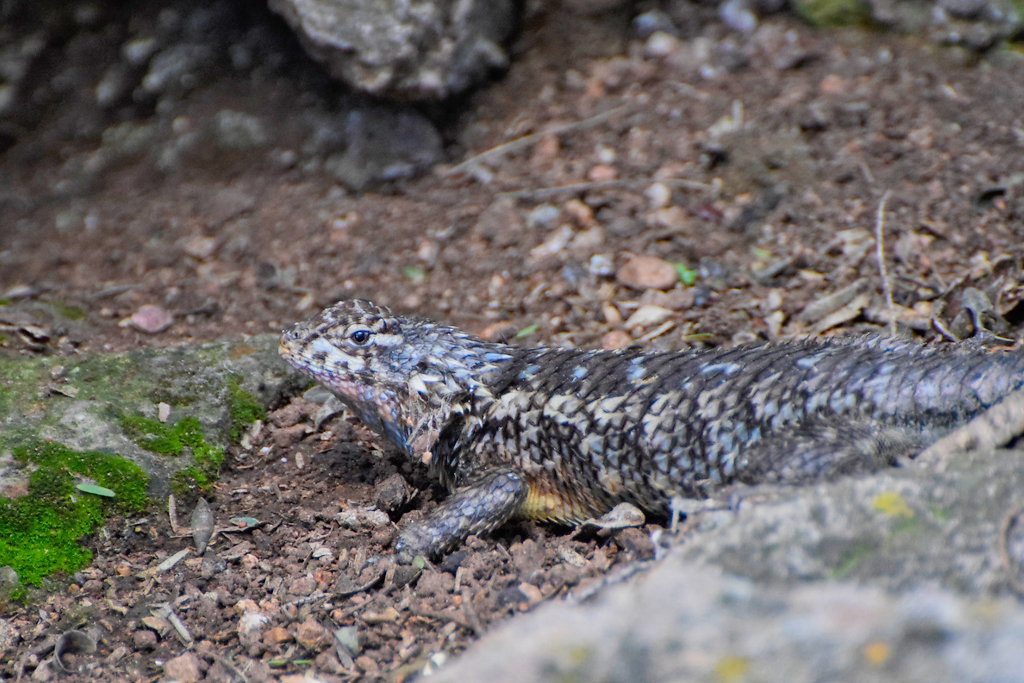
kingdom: Animalia
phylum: Chordata
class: Squamata
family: Phrynosomatidae
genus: Sceloporus
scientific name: Sceloporus spinosus
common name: Blue-spotted spiny lizard [caeruleopunctatus]
